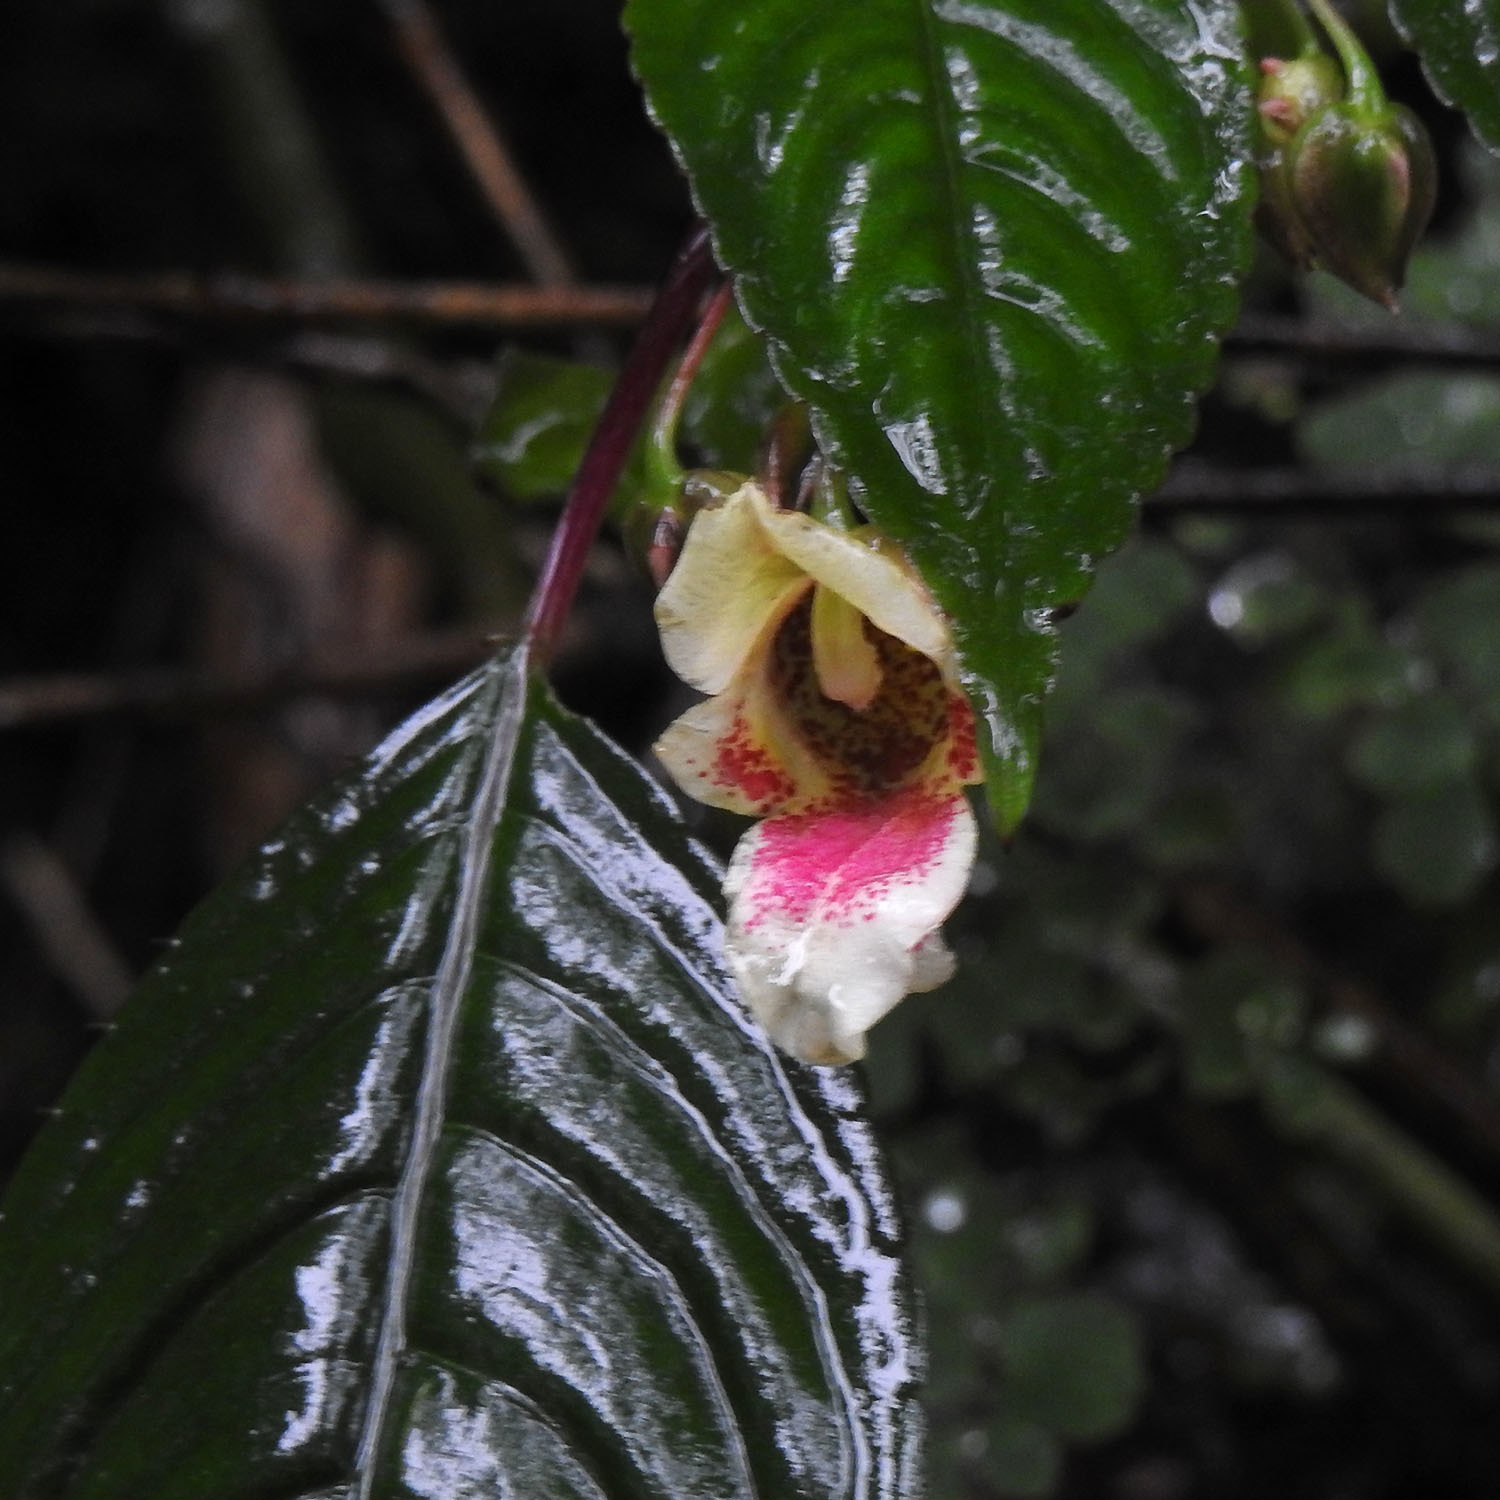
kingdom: Plantae
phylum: Tracheophyta
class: Magnoliopsida
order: Ericales
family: Balsaminaceae
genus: Impatiens
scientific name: Impatiens disotis
